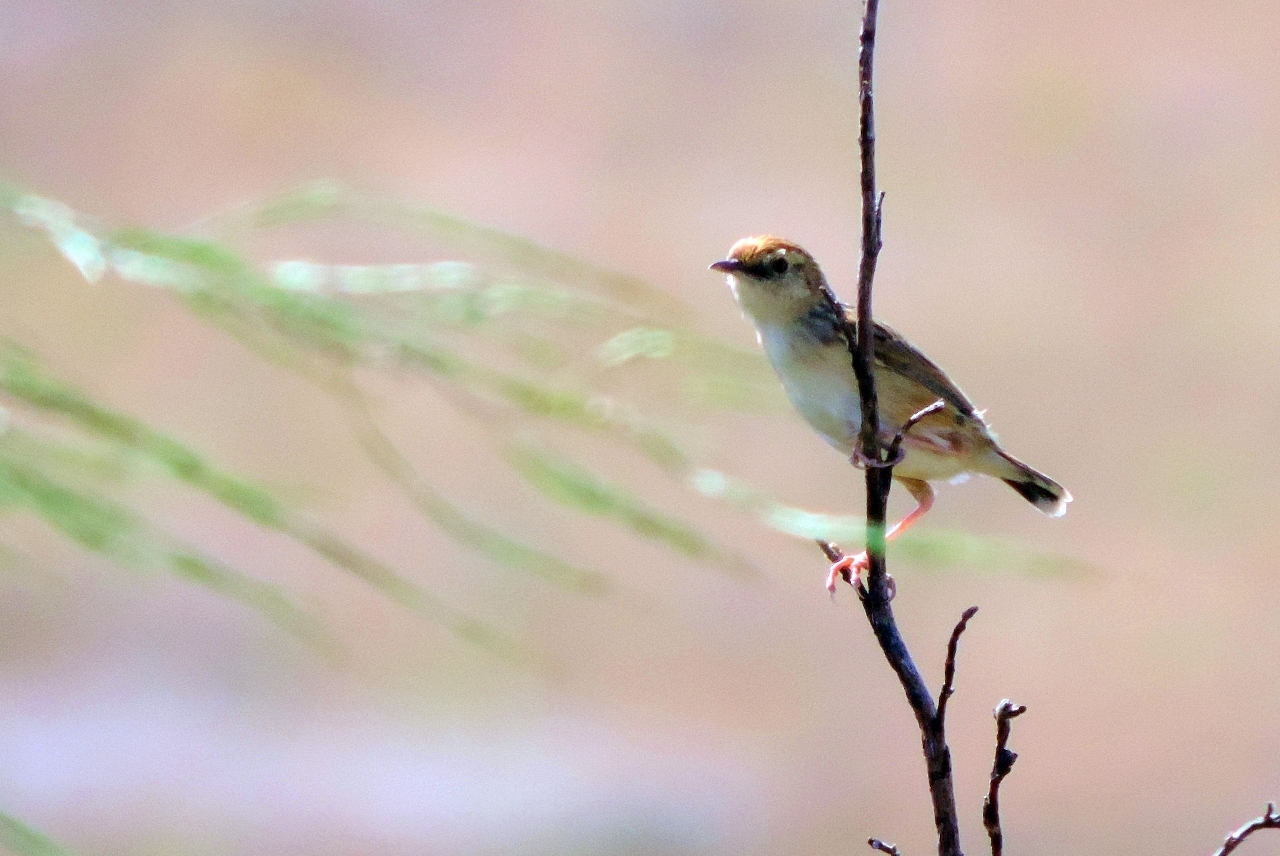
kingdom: Animalia
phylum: Chordata
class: Aves
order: Passeriformes
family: Cisticolidae
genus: Cisticola
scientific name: Cisticola juncidis
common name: Zitting cisticola
